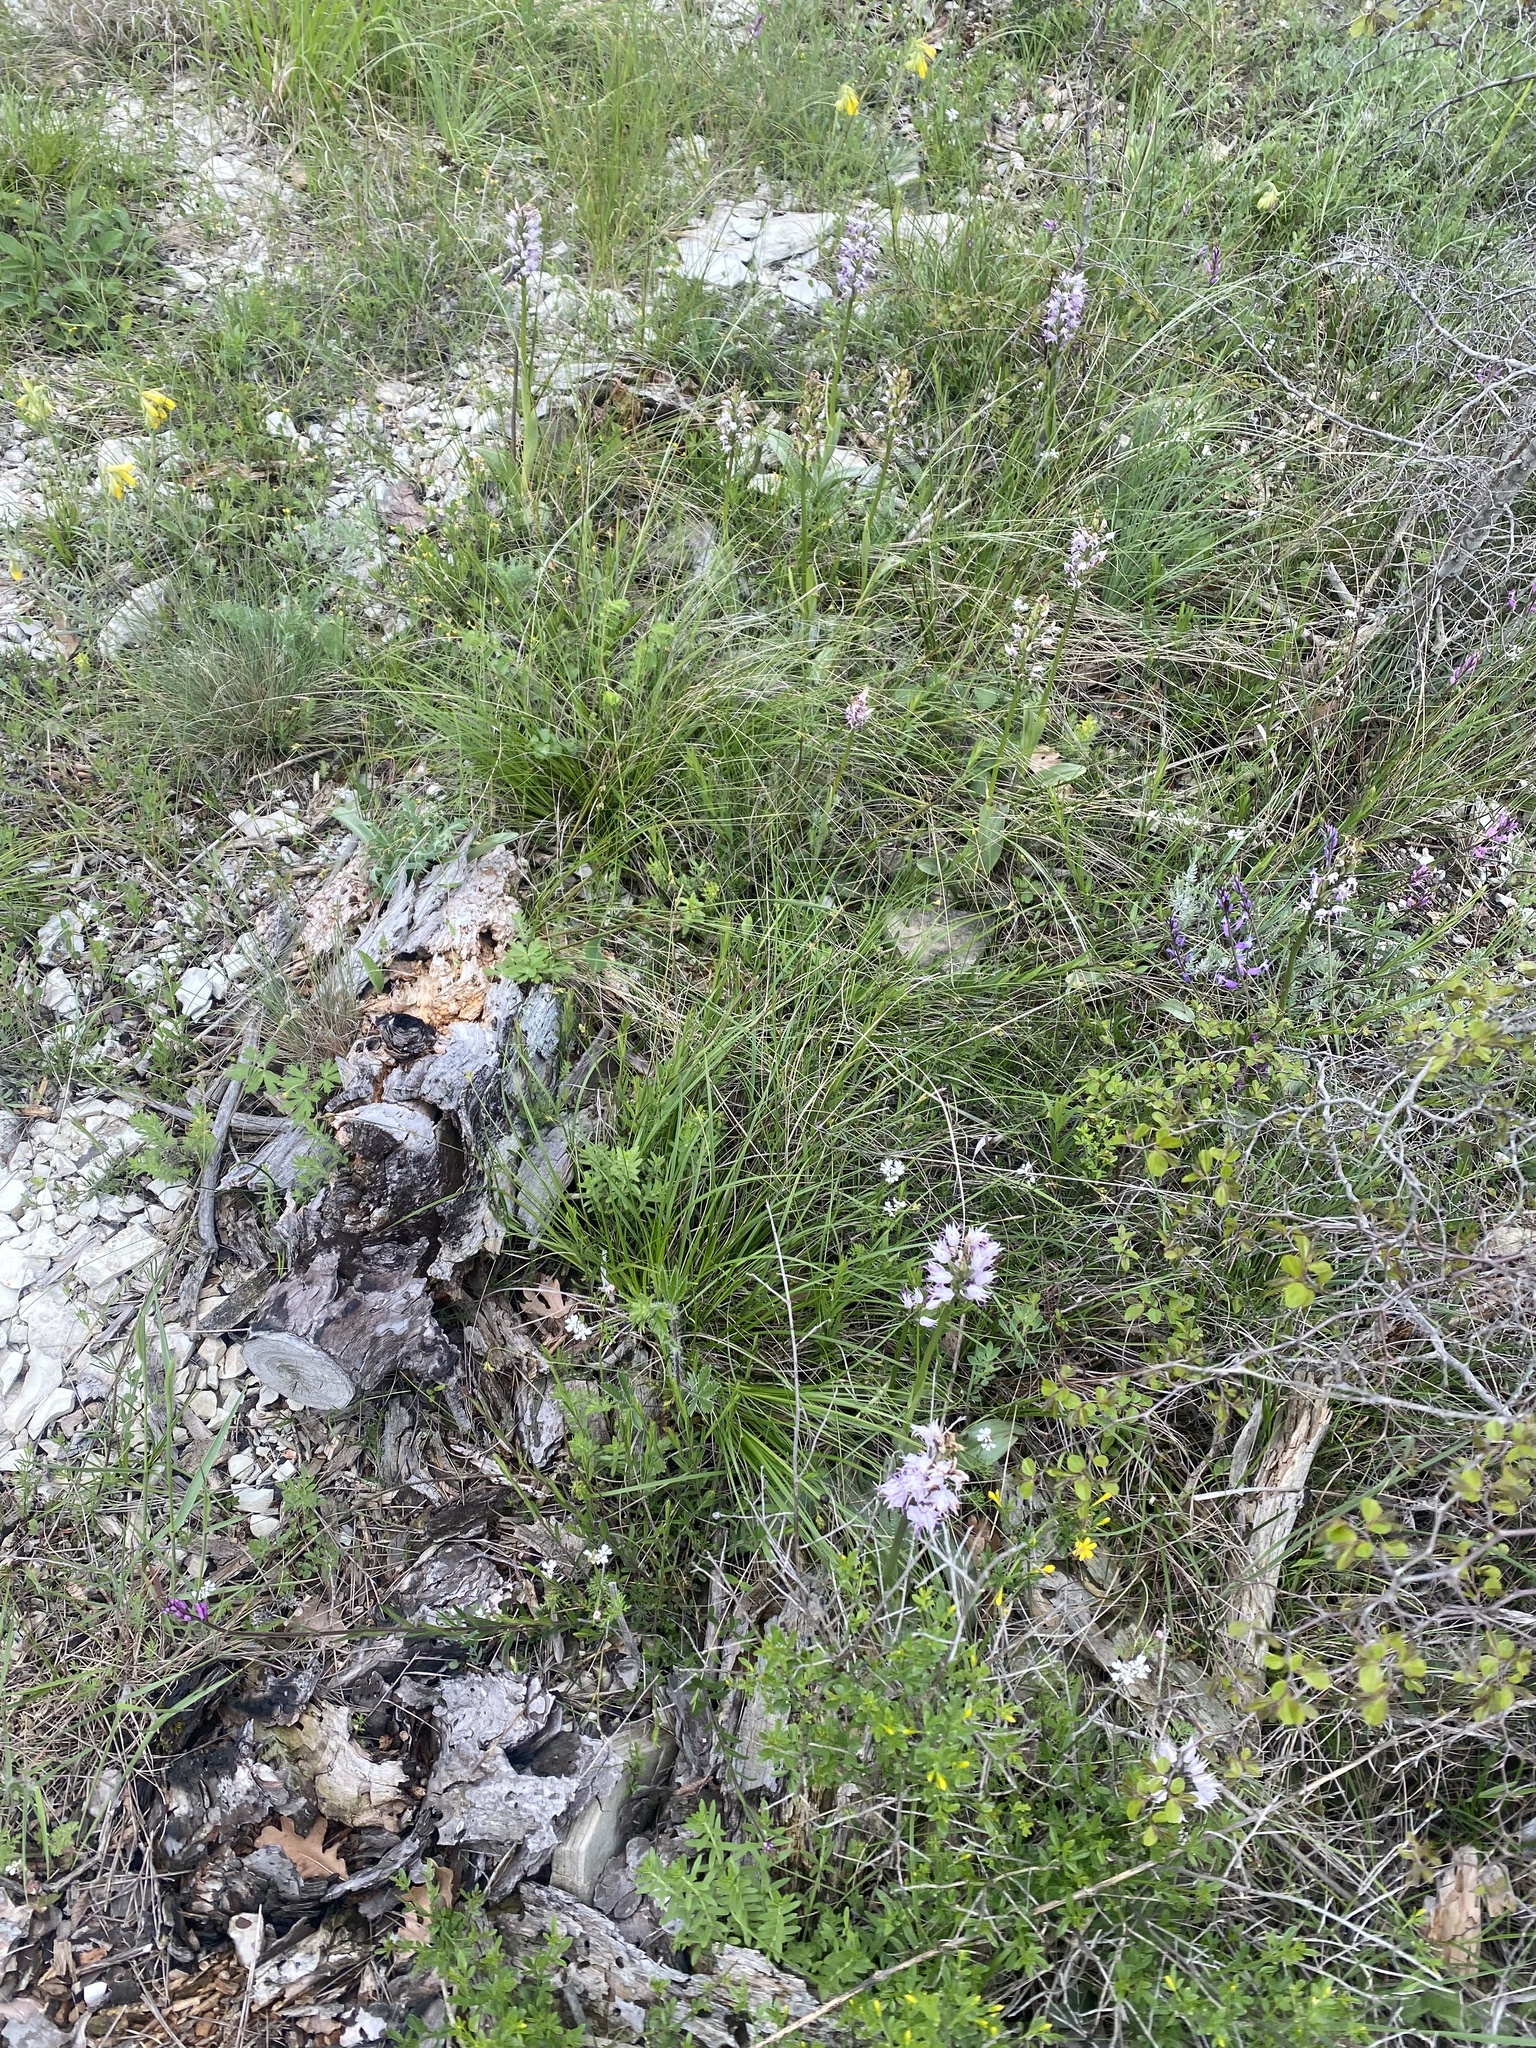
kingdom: Plantae
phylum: Tracheophyta
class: Liliopsida
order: Asparagales
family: Orchidaceae
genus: Orchis
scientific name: Orchis simia
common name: Monkey orchid
